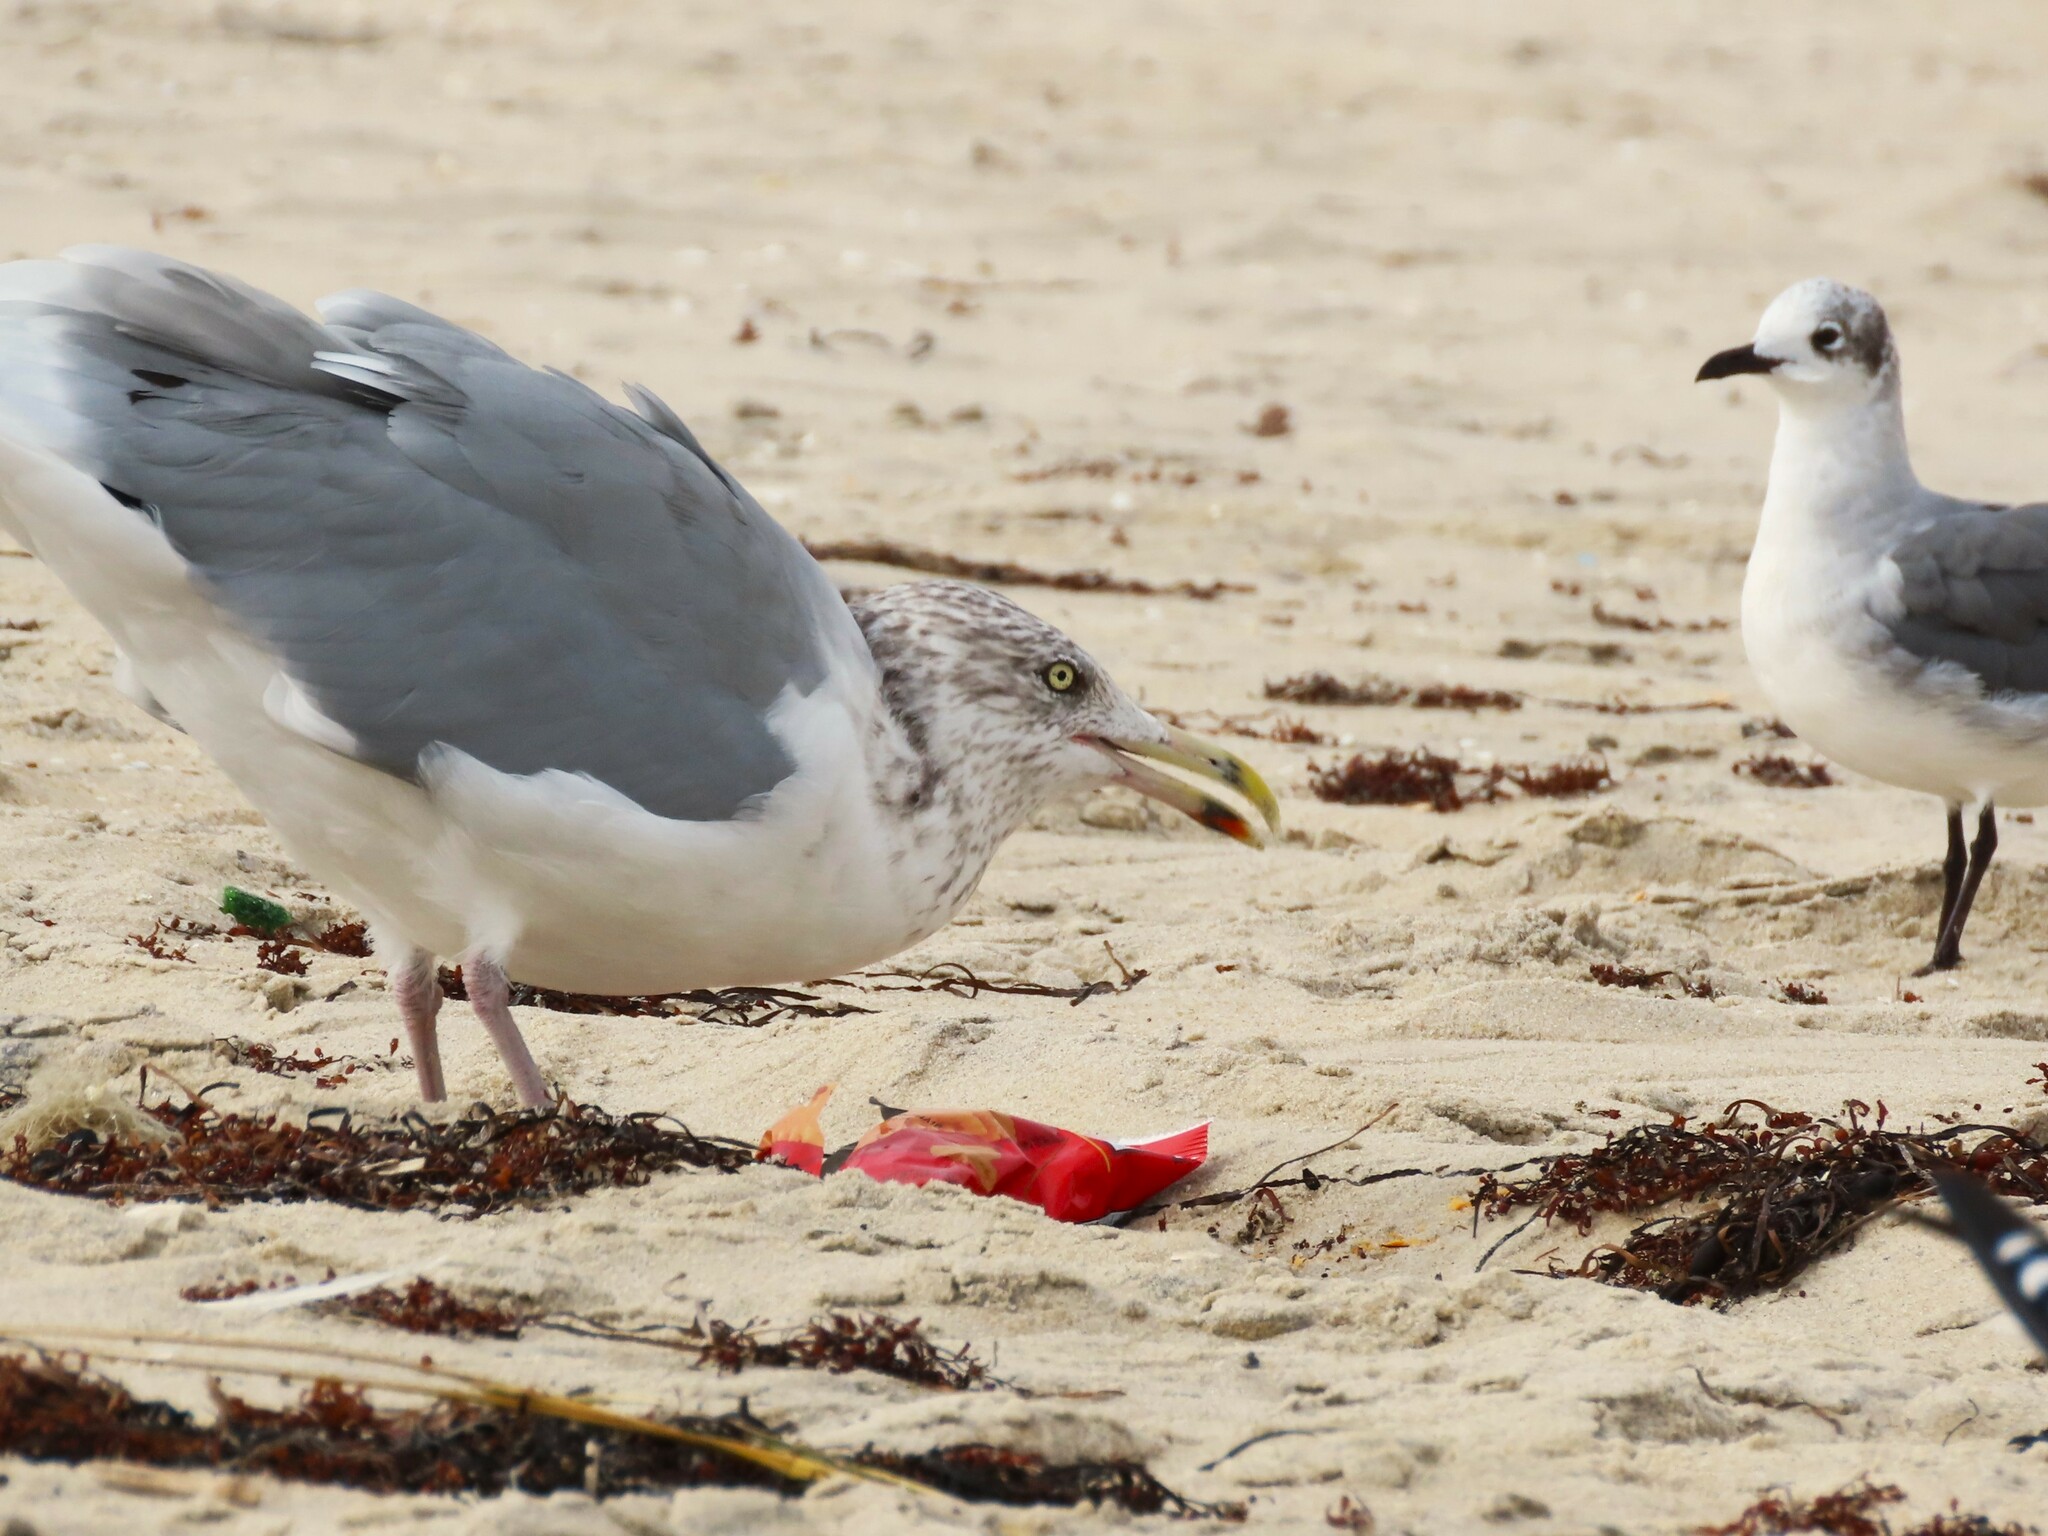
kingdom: Animalia
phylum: Chordata
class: Aves
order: Charadriiformes
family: Laridae
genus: Larus
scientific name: Larus argentatus
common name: Herring gull
